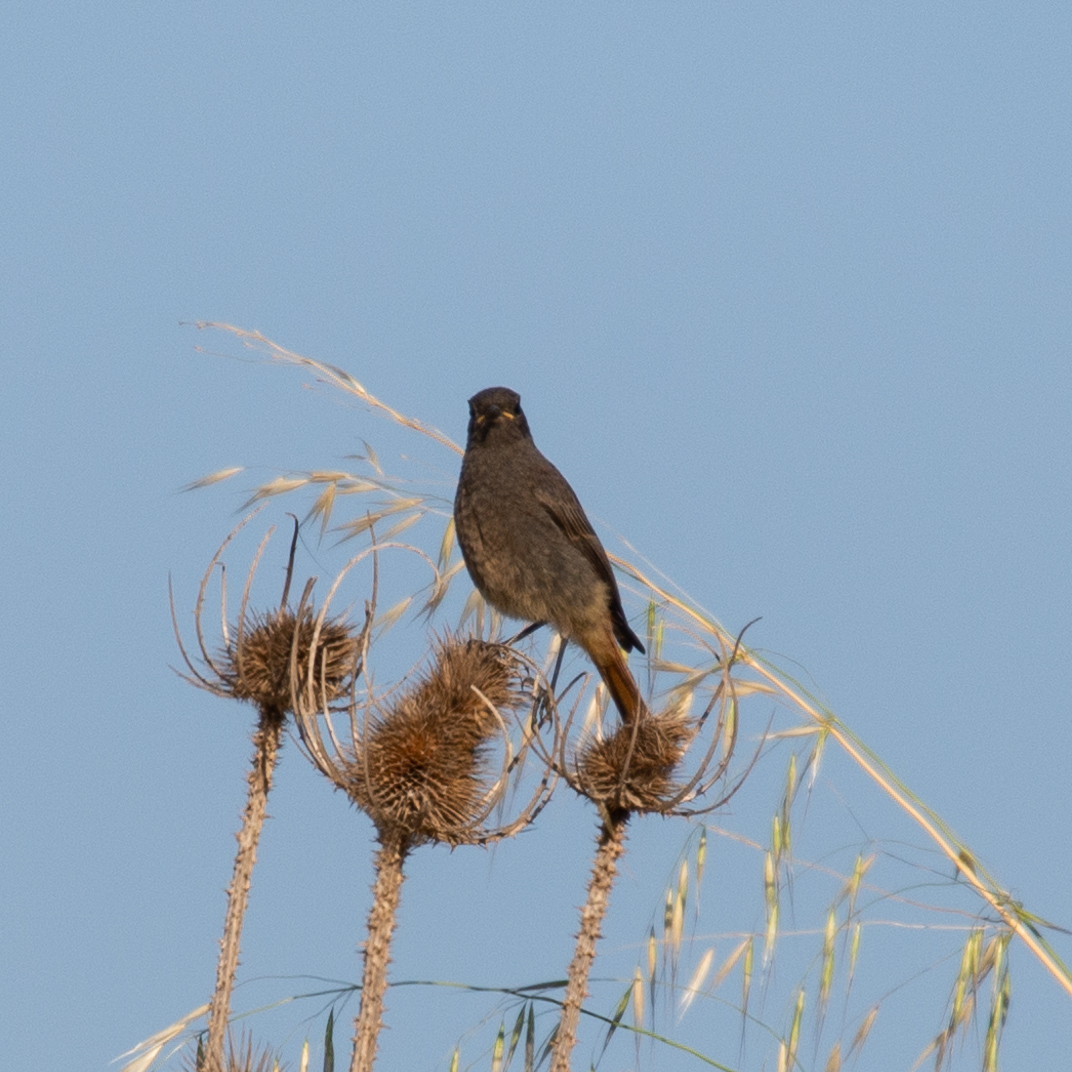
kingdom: Animalia
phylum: Chordata
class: Aves
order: Passeriformes
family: Muscicapidae
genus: Phoenicurus
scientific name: Phoenicurus ochruros
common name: Black redstart
